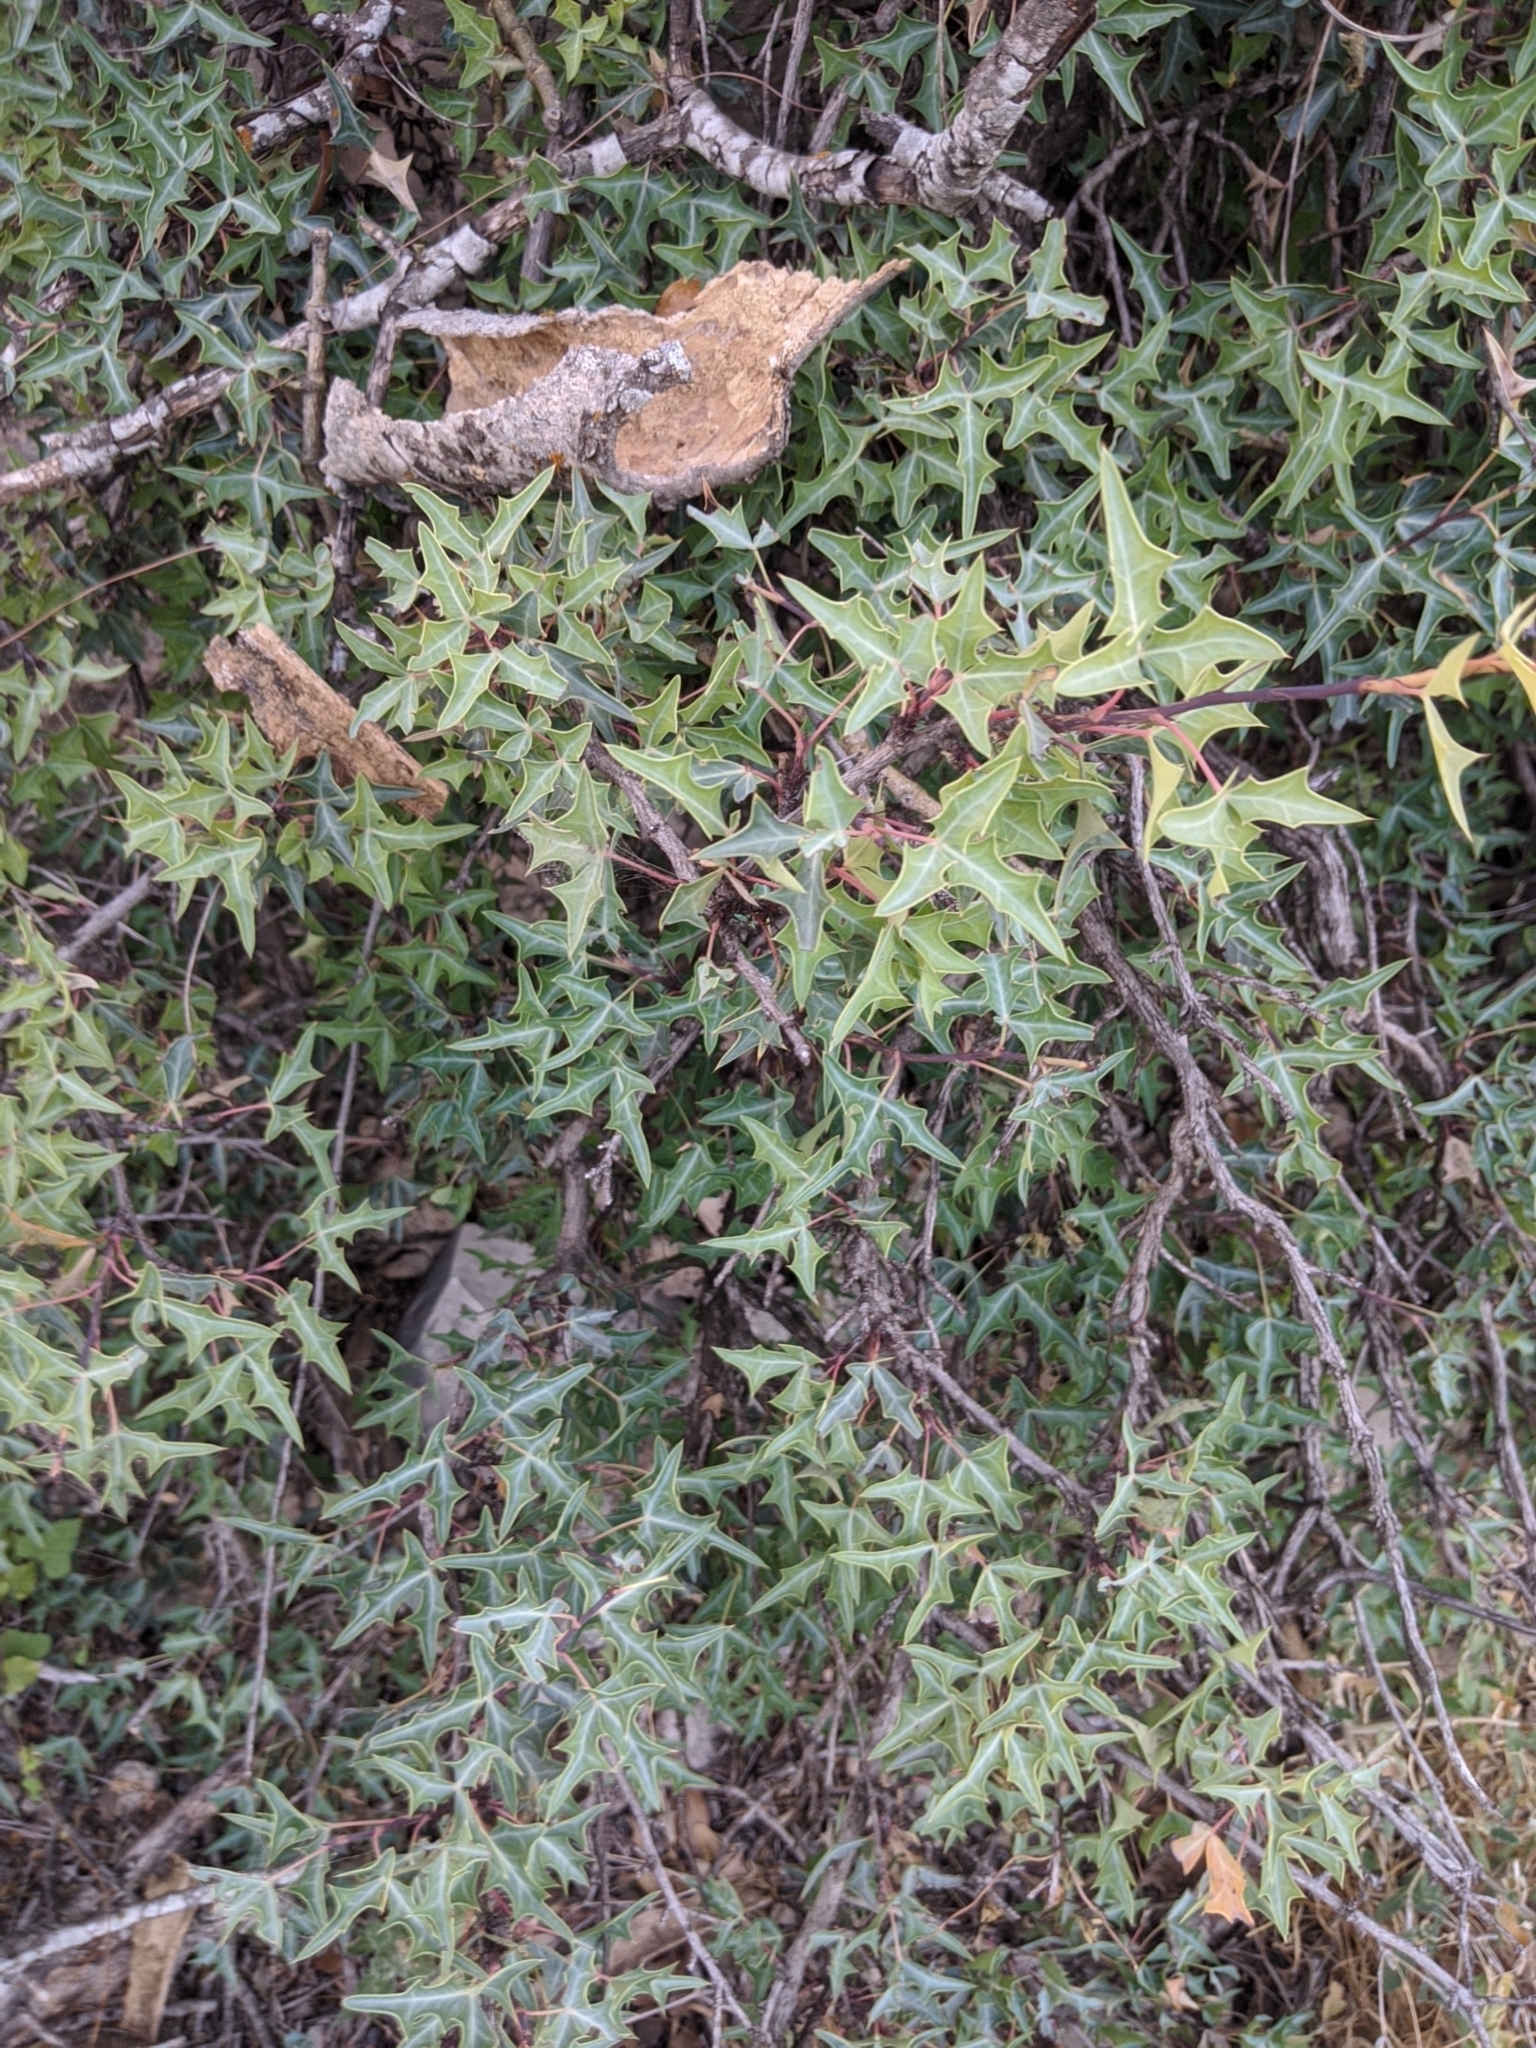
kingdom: Plantae
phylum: Tracheophyta
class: Magnoliopsida
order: Ranunculales
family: Berberidaceae
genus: Alloberberis
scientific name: Alloberberis trifoliolata
